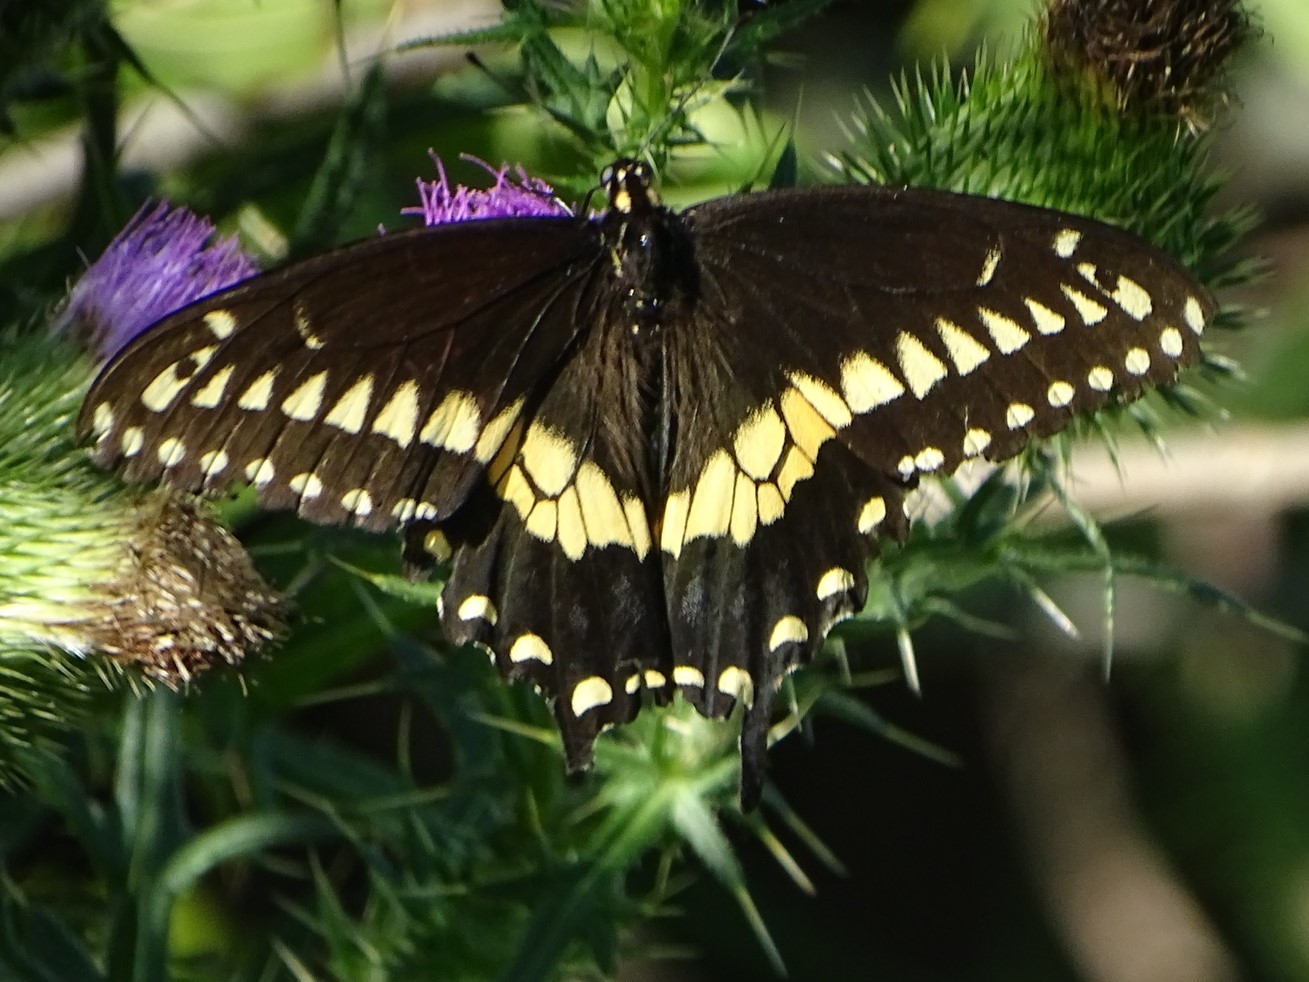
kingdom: Animalia
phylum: Arthropoda
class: Insecta
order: Lepidoptera
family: Papilionidae
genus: Papilio
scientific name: Papilio polyxenes
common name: Black swallowtail
